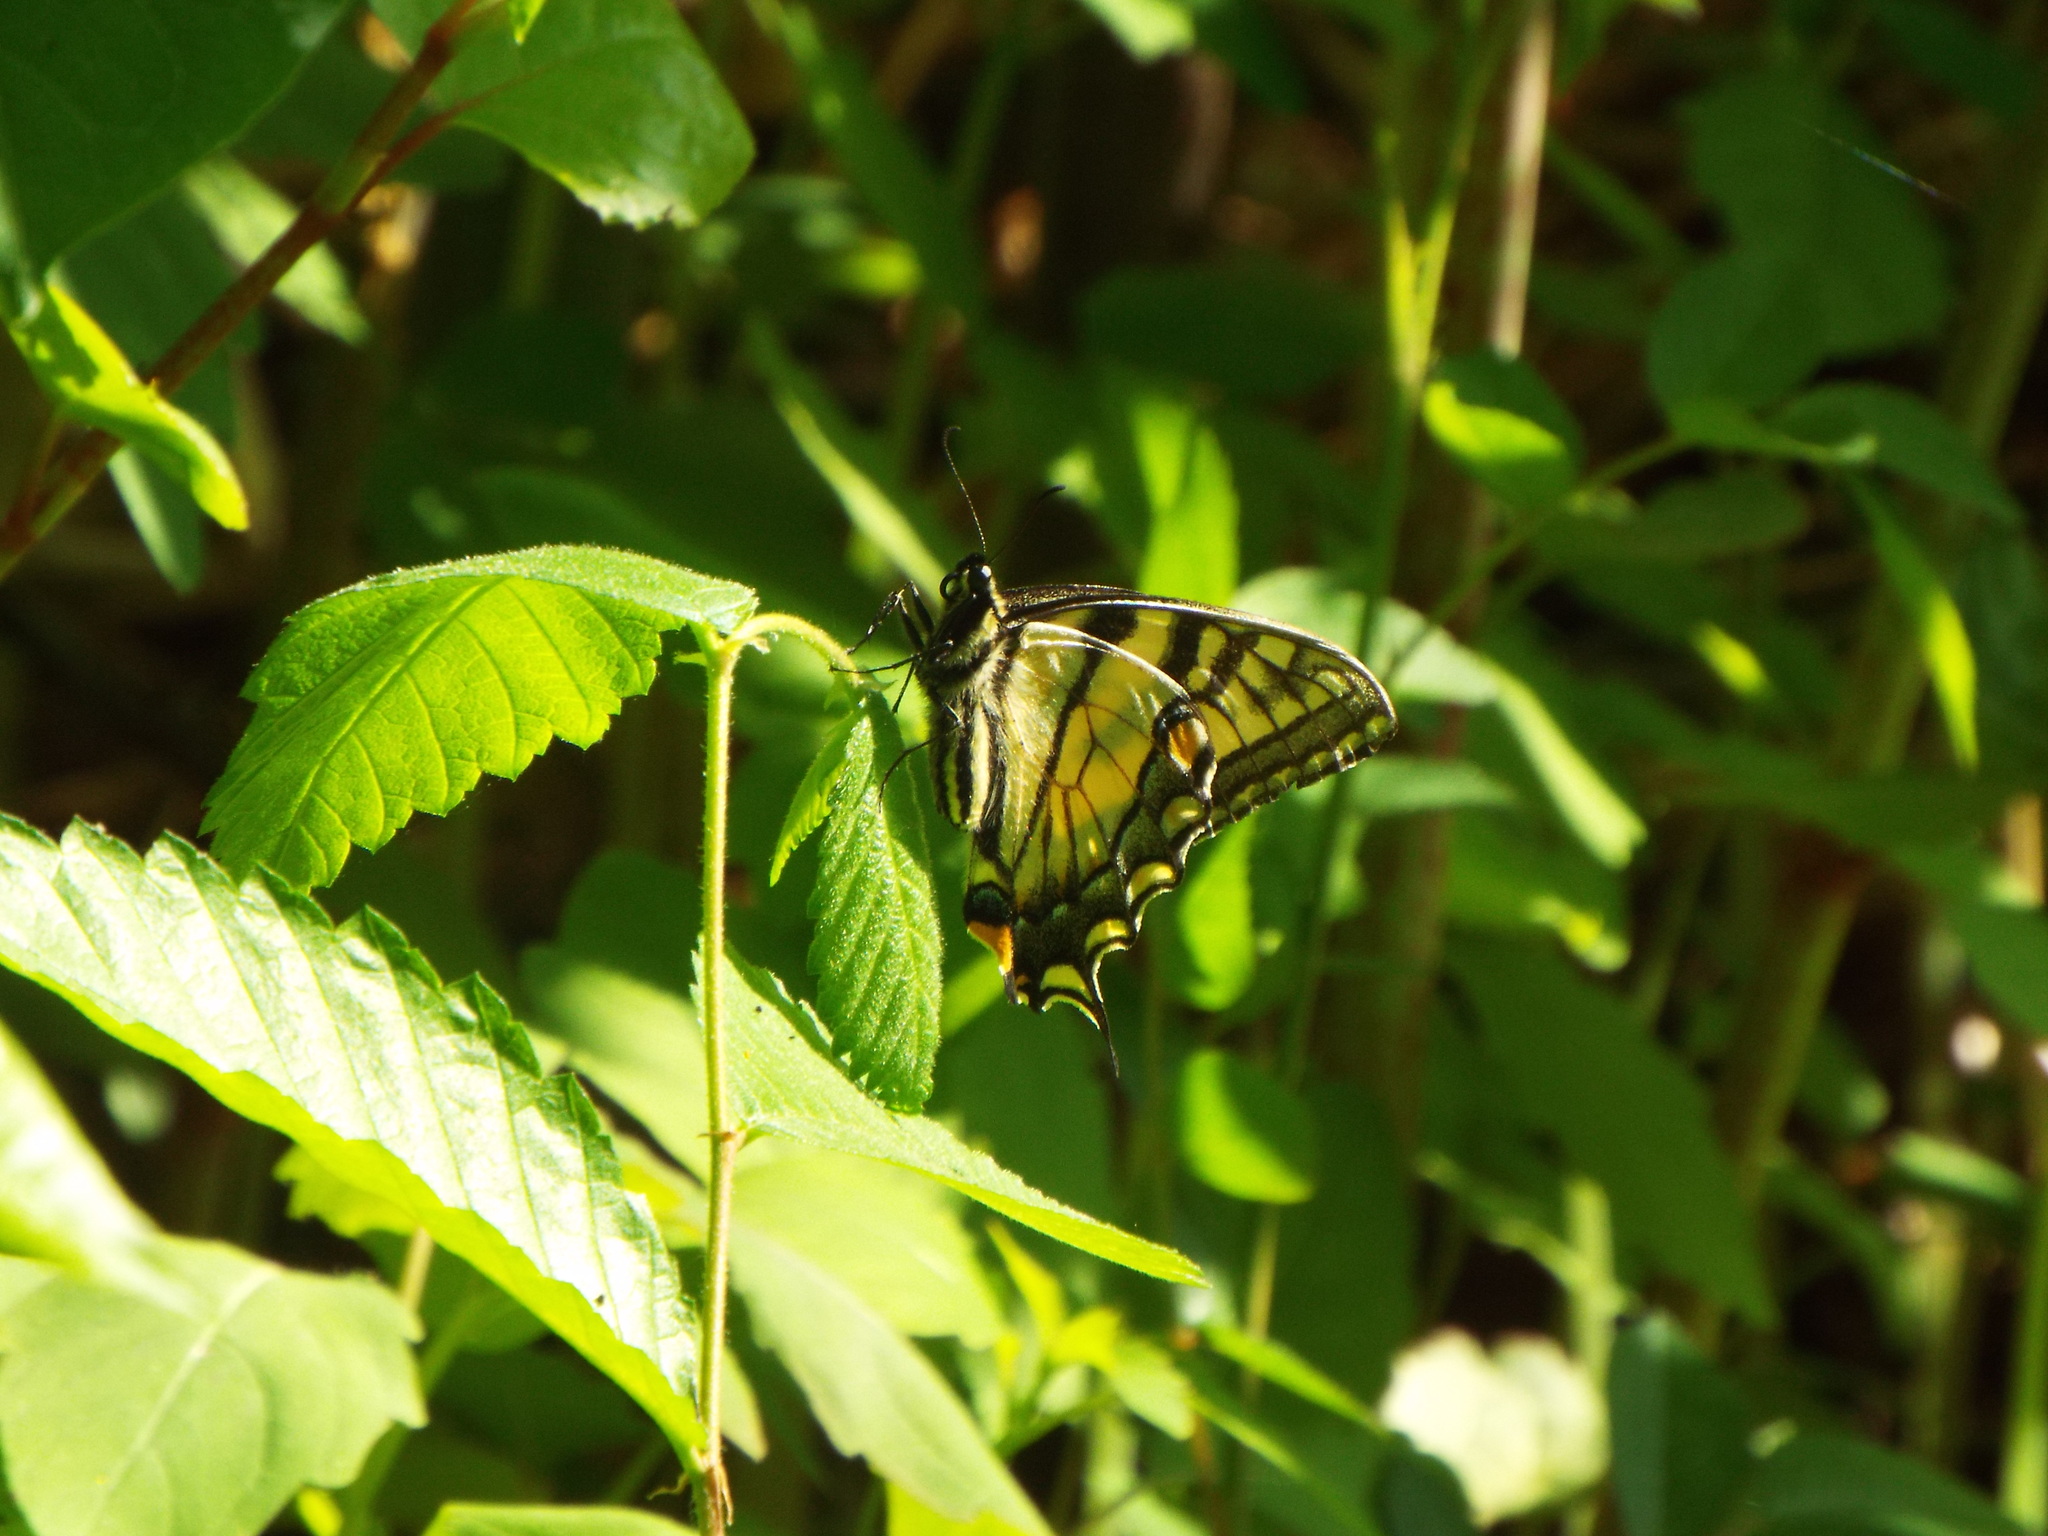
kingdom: Animalia
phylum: Arthropoda
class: Insecta
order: Lepidoptera
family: Papilionidae
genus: Papilio
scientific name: Papilio
